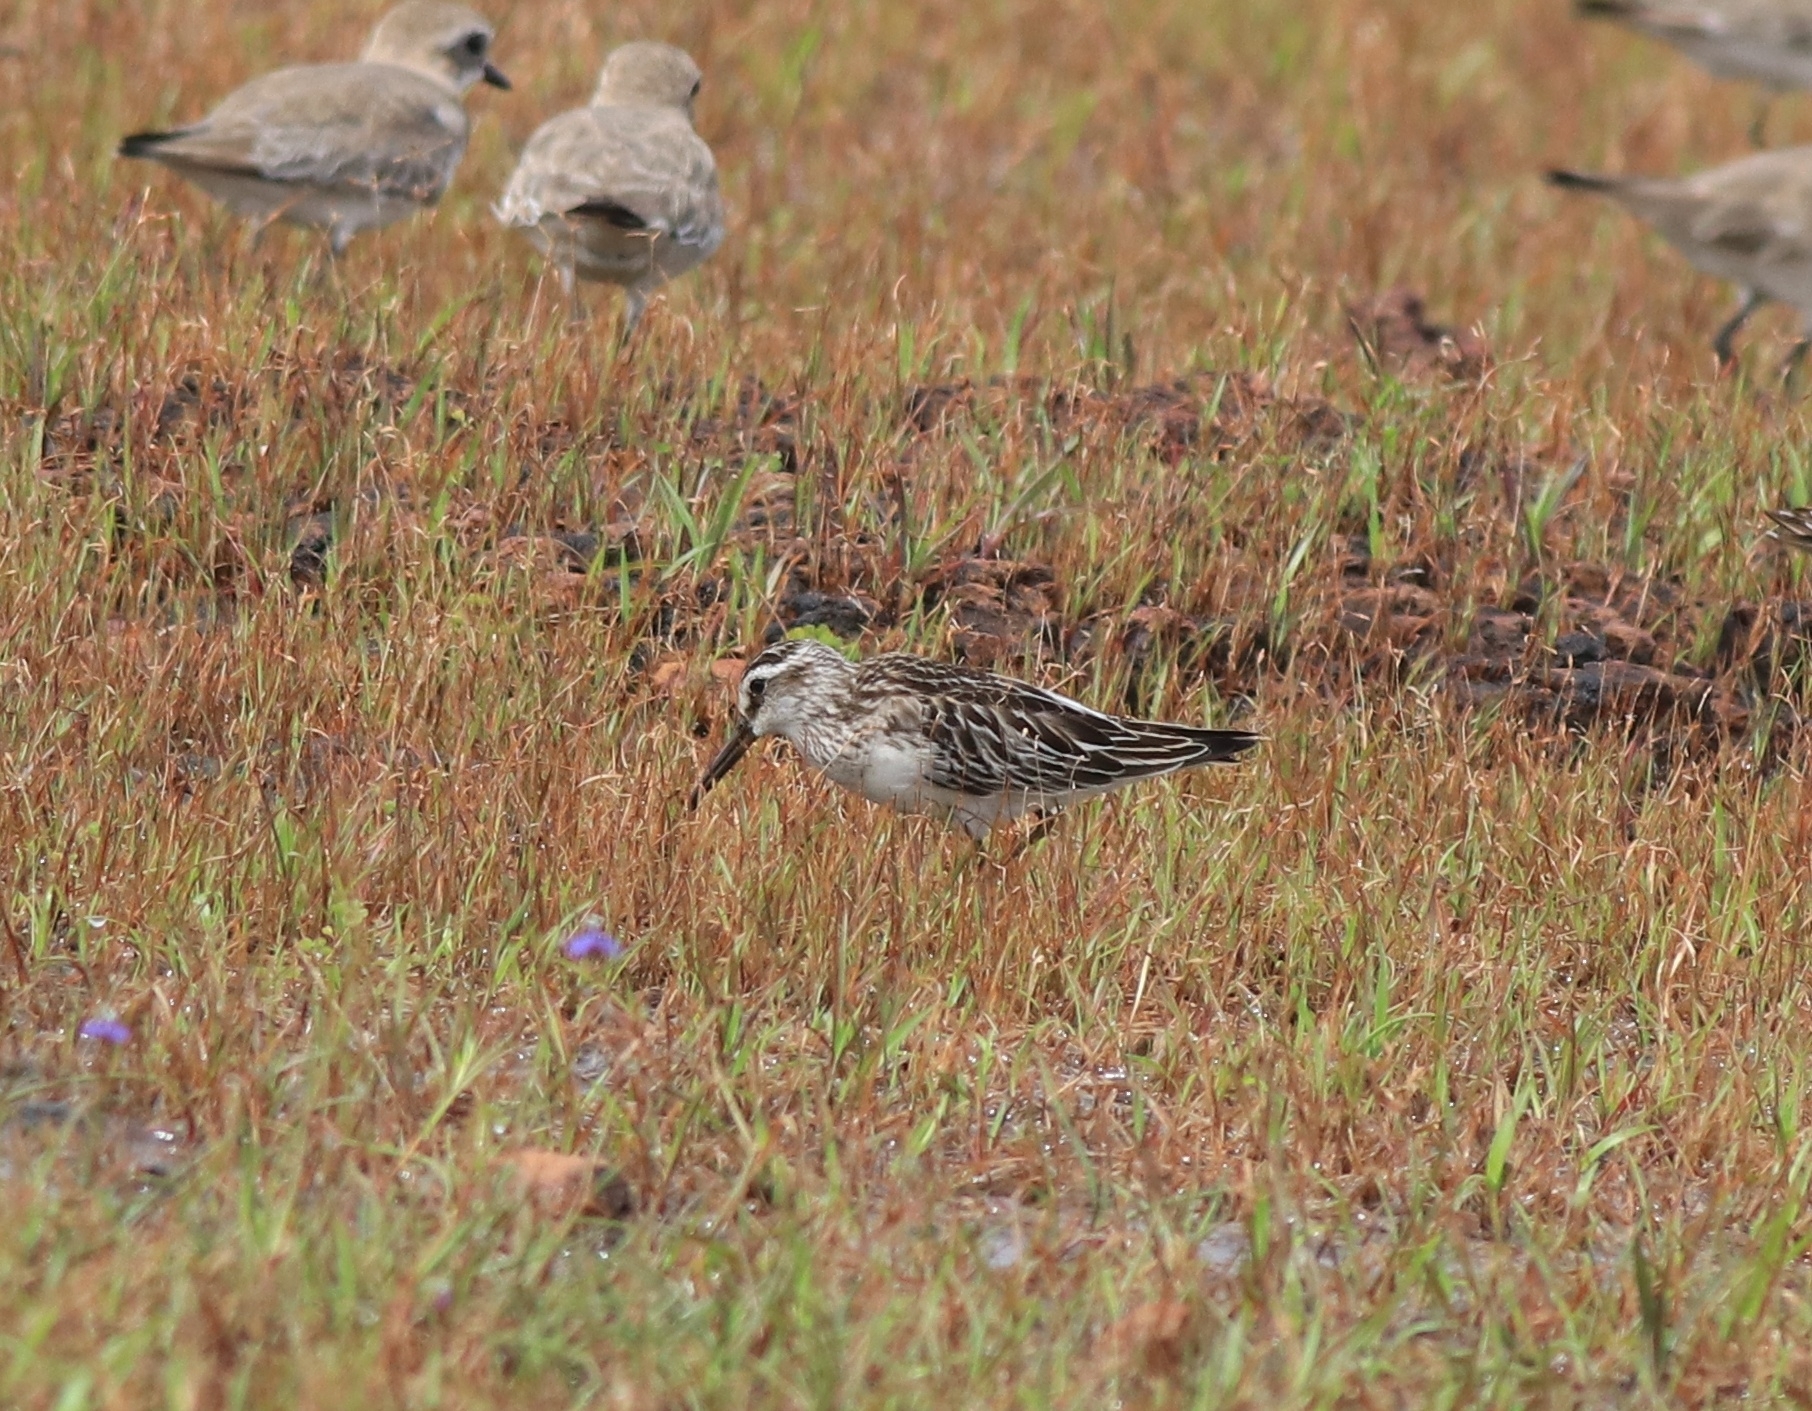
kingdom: Animalia
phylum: Chordata
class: Aves
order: Charadriiformes
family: Scolopacidae
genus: Calidris
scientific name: Calidris falcinellus
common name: Broad-billed sandpiper
